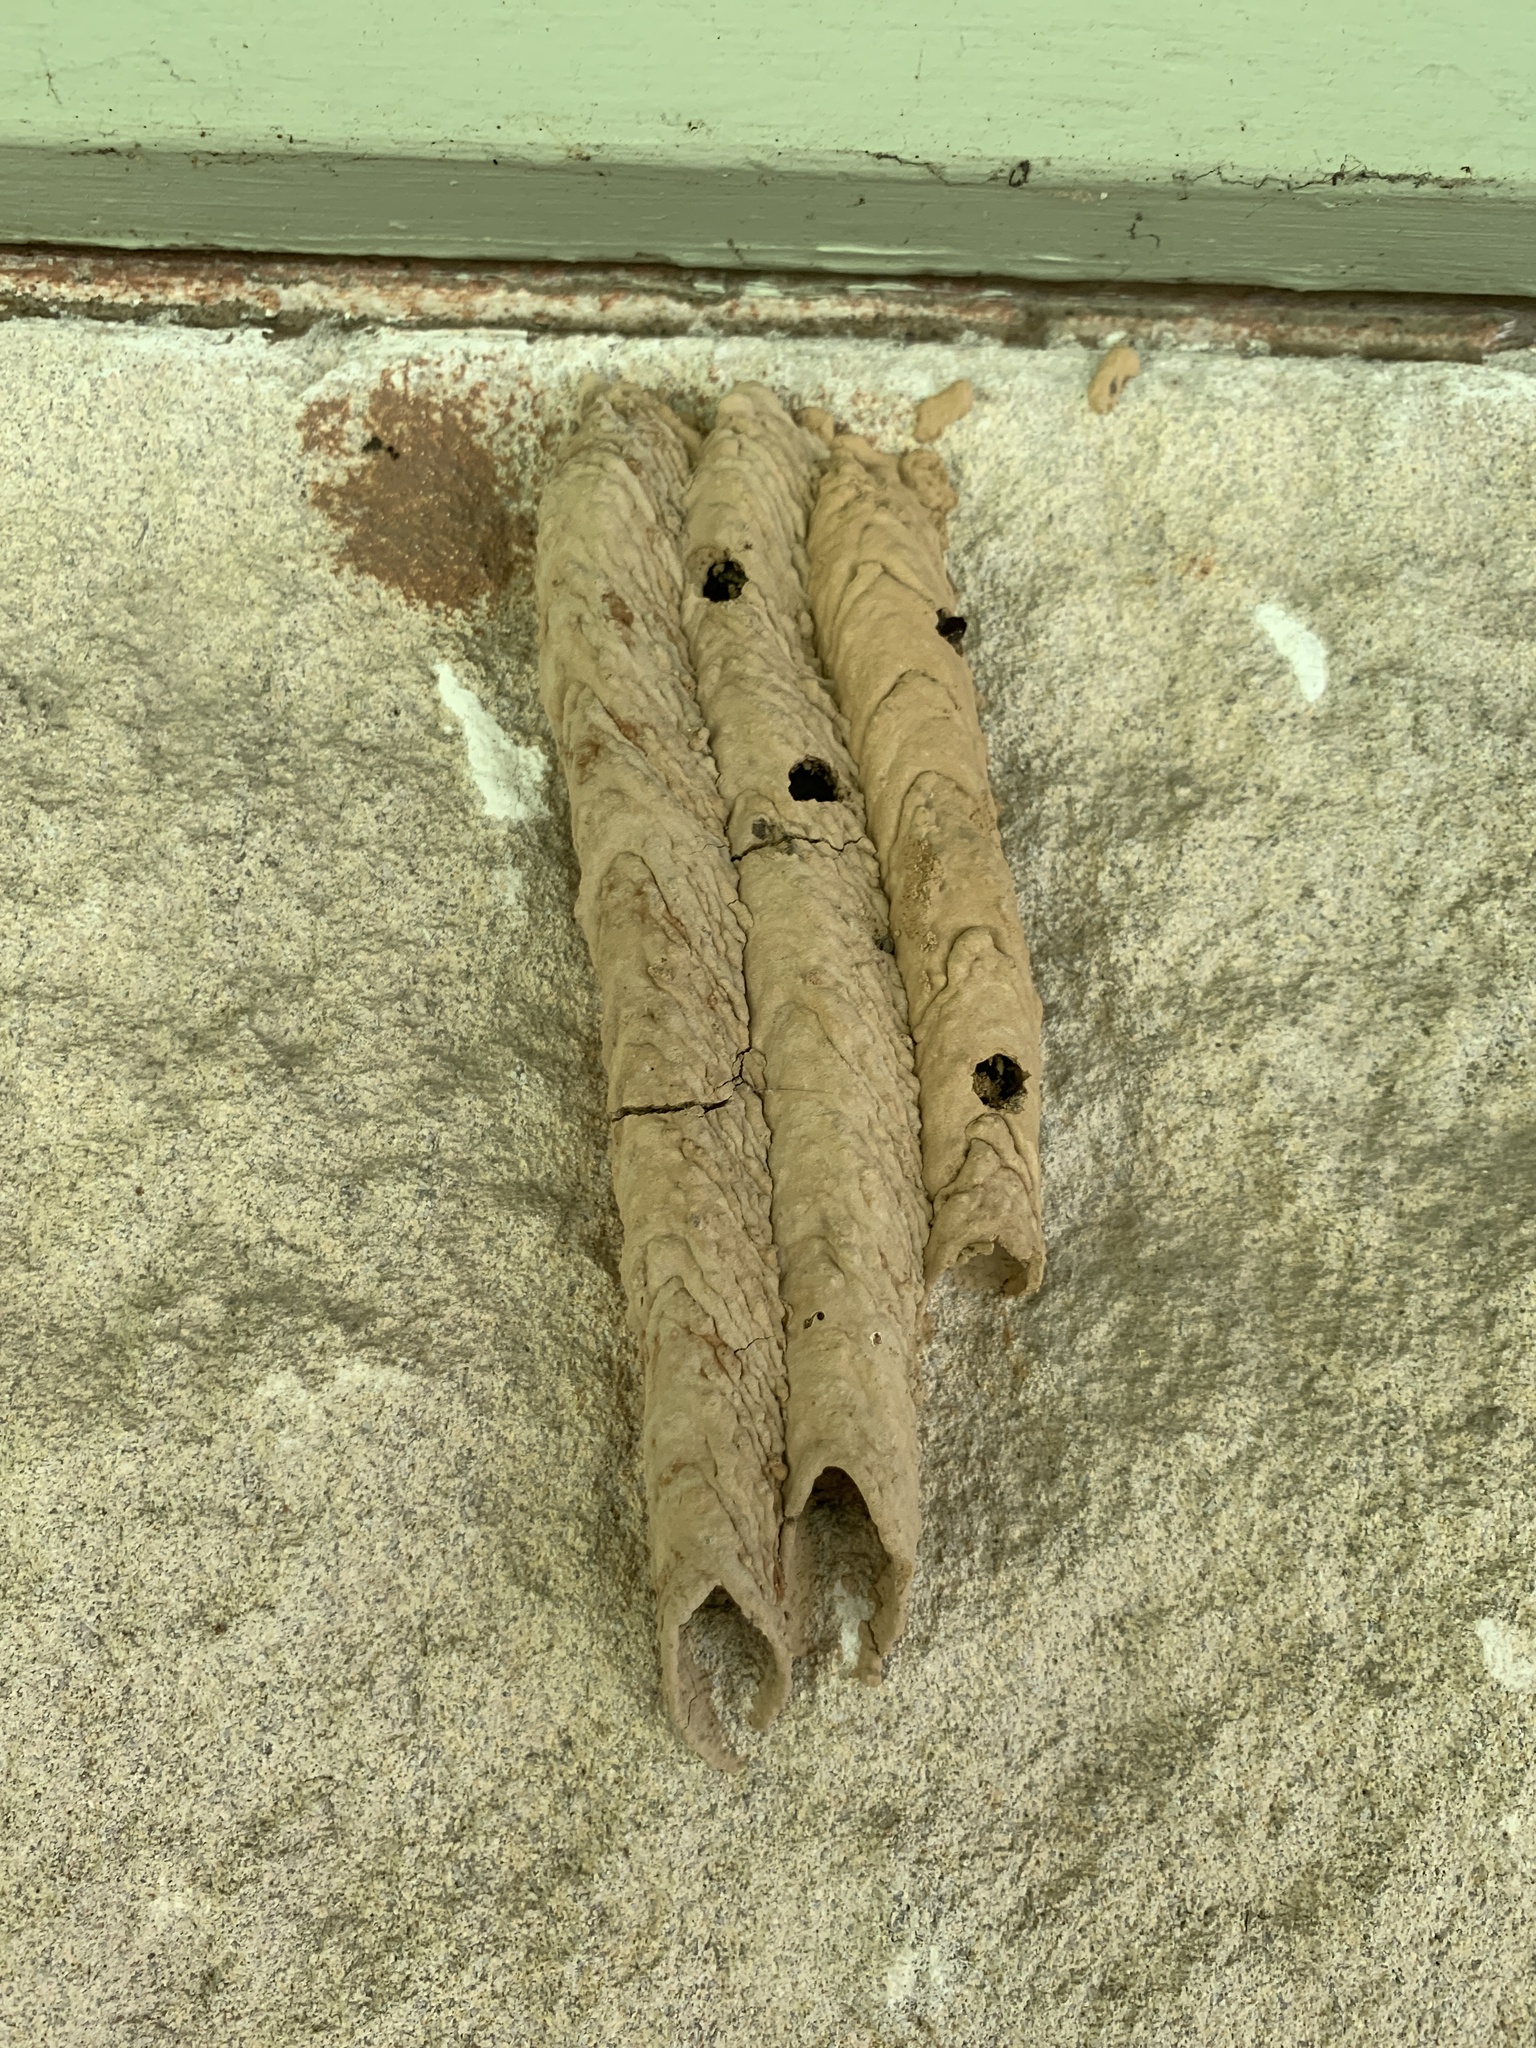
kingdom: Animalia
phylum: Arthropoda
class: Insecta
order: Hymenoptera
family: Crabronidae
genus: Trypoxylon
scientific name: Trypoxylon politum
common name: Organ-pipe mud-dauber wasp
